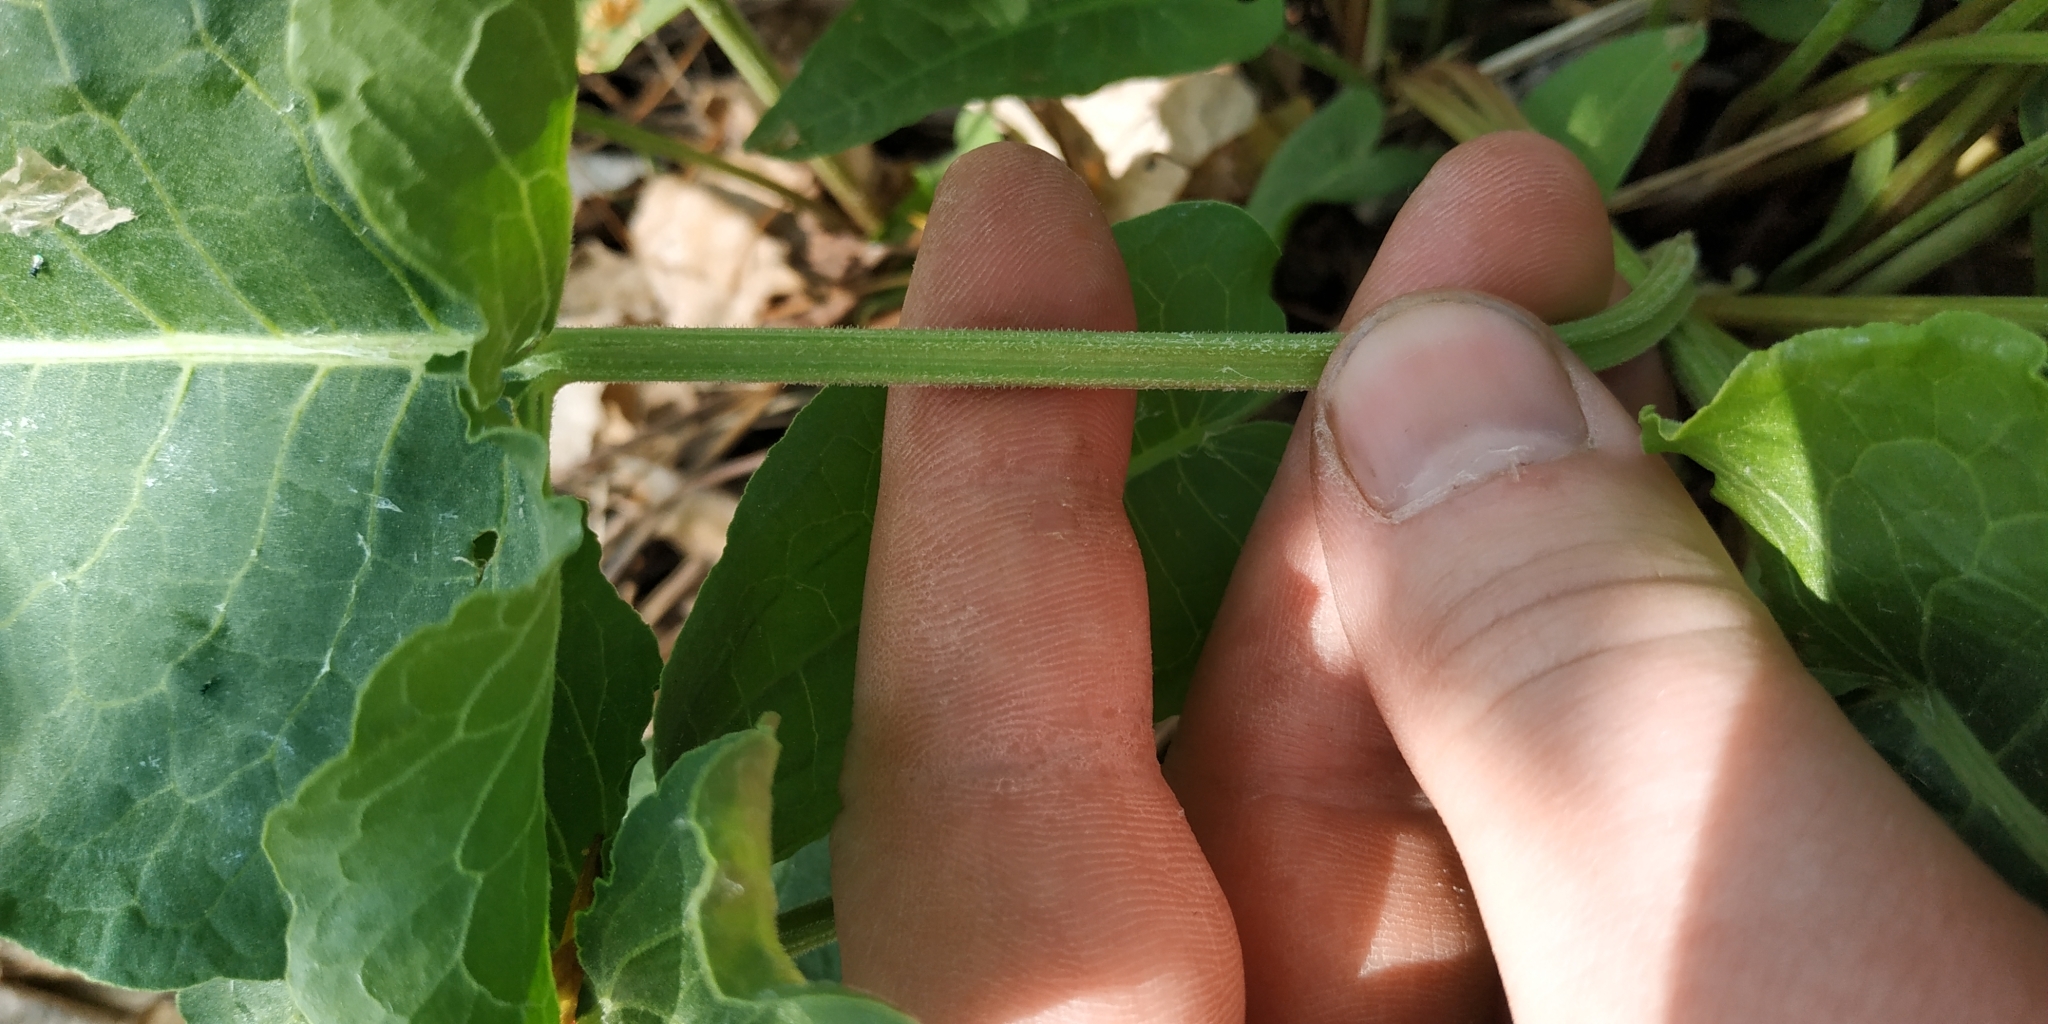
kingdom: Plantae
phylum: Tracheophyta
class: Magnoliopsida
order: Caryophyllales
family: Polygonaceae
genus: Rumex
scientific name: Rumex confertus
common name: Russian dock
